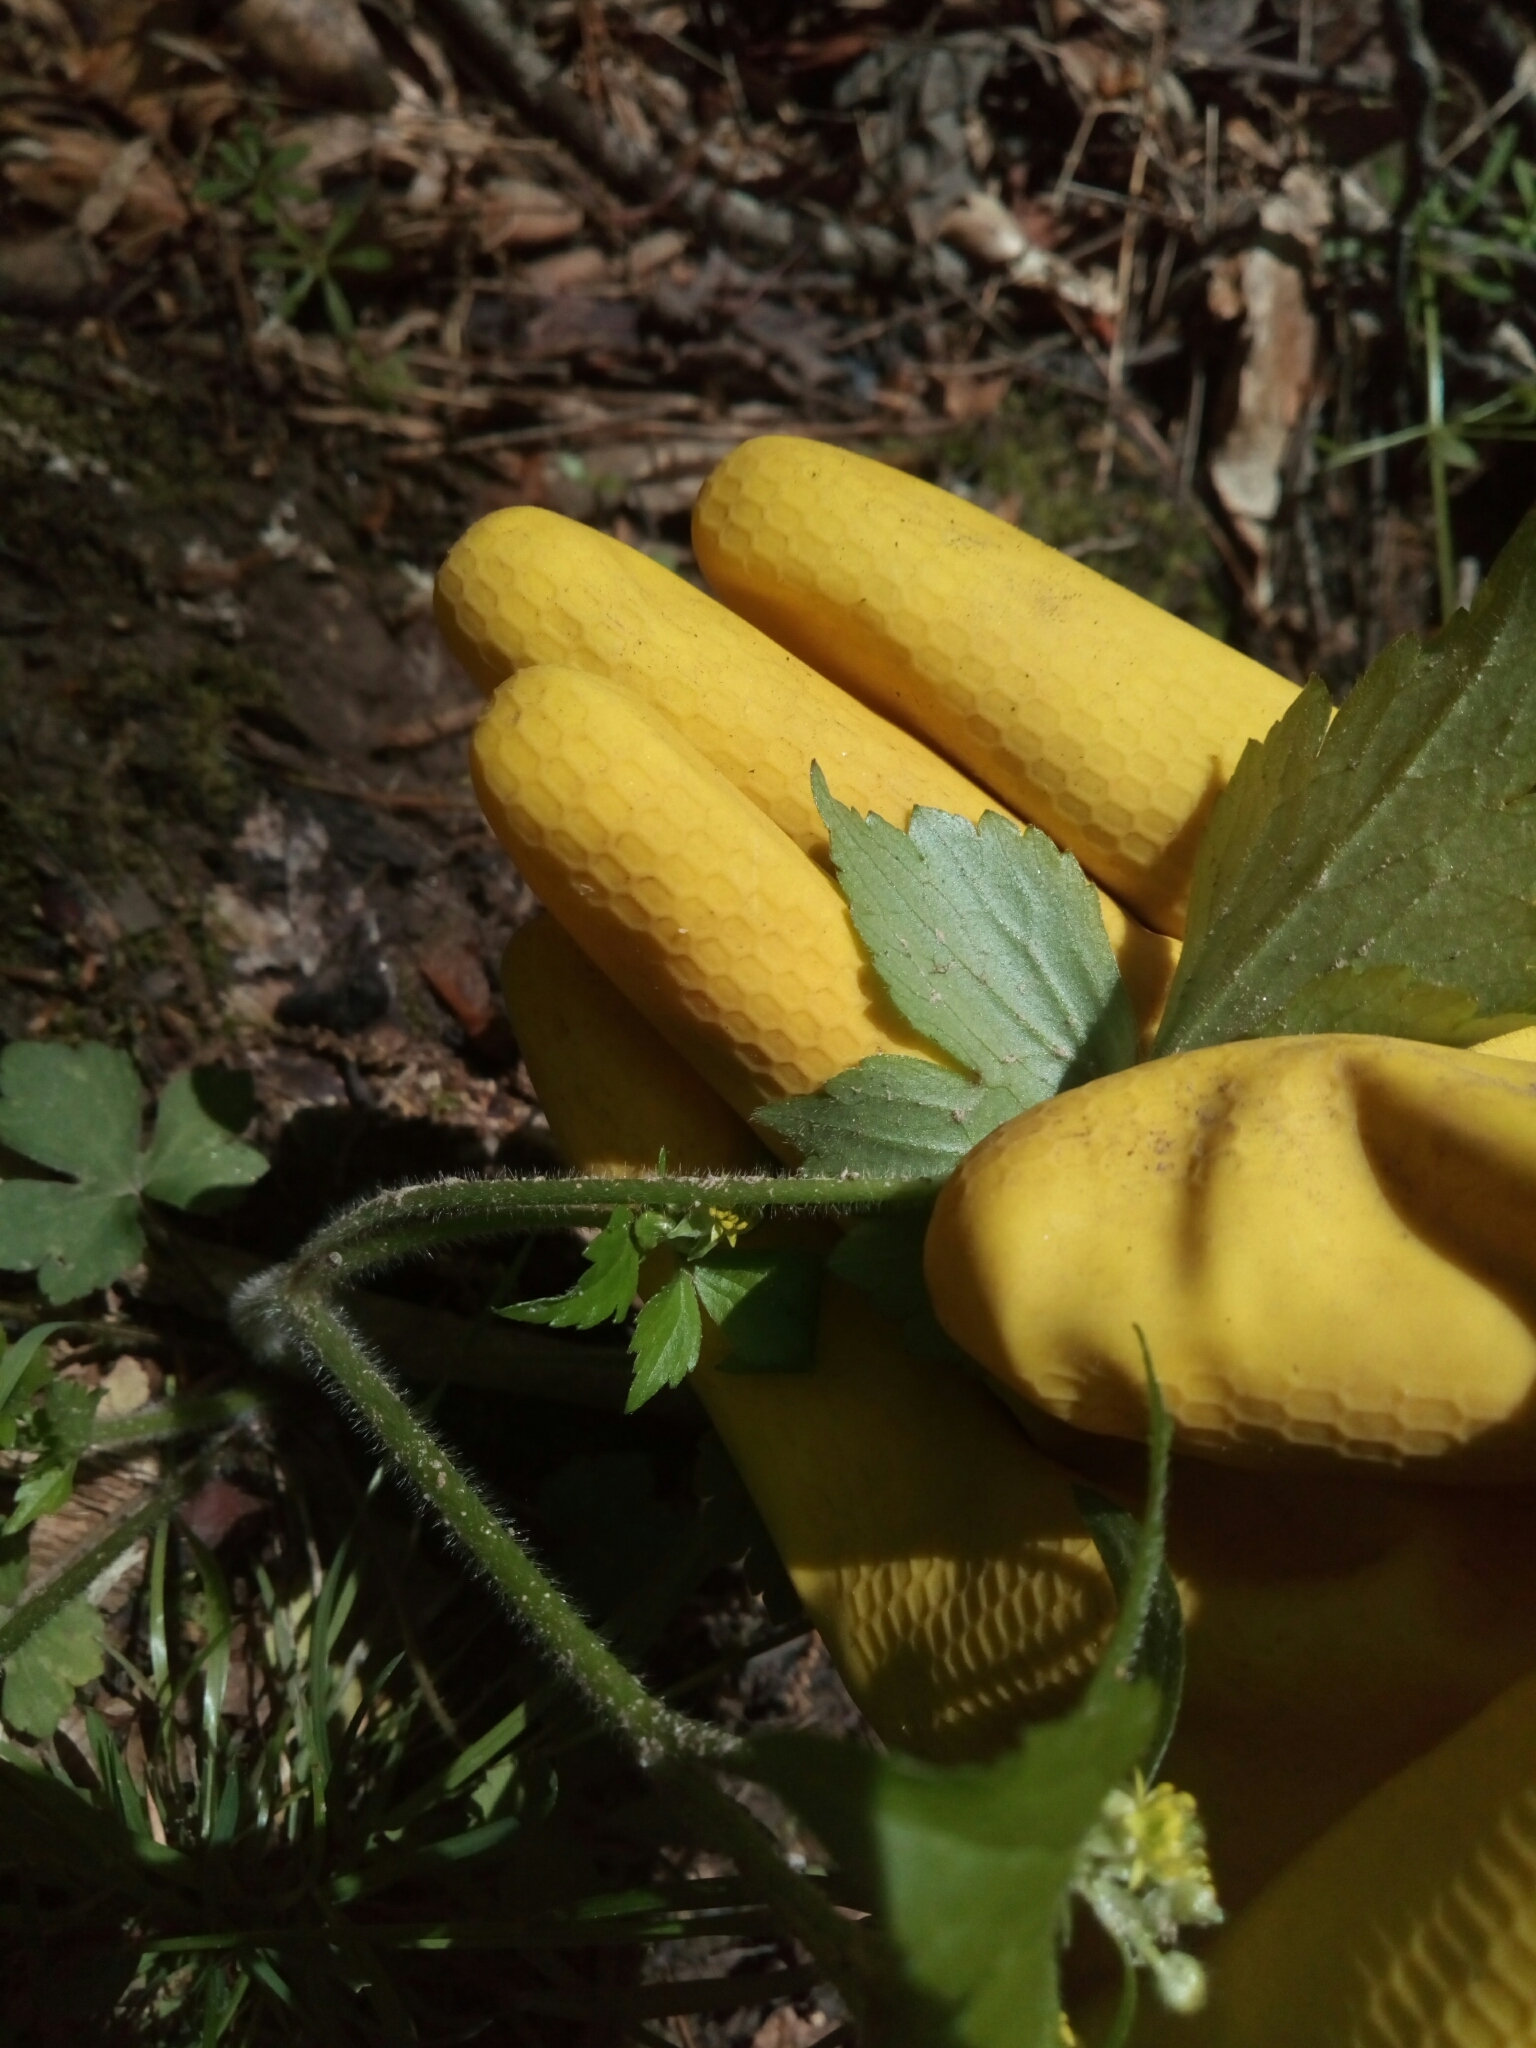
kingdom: Plantae
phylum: Tracheophyta
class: Magnoliopsida
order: Ranunculales
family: Ranunculaceae
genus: Ranunculus
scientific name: Ranunculus recurvatus
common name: Blisterwort
